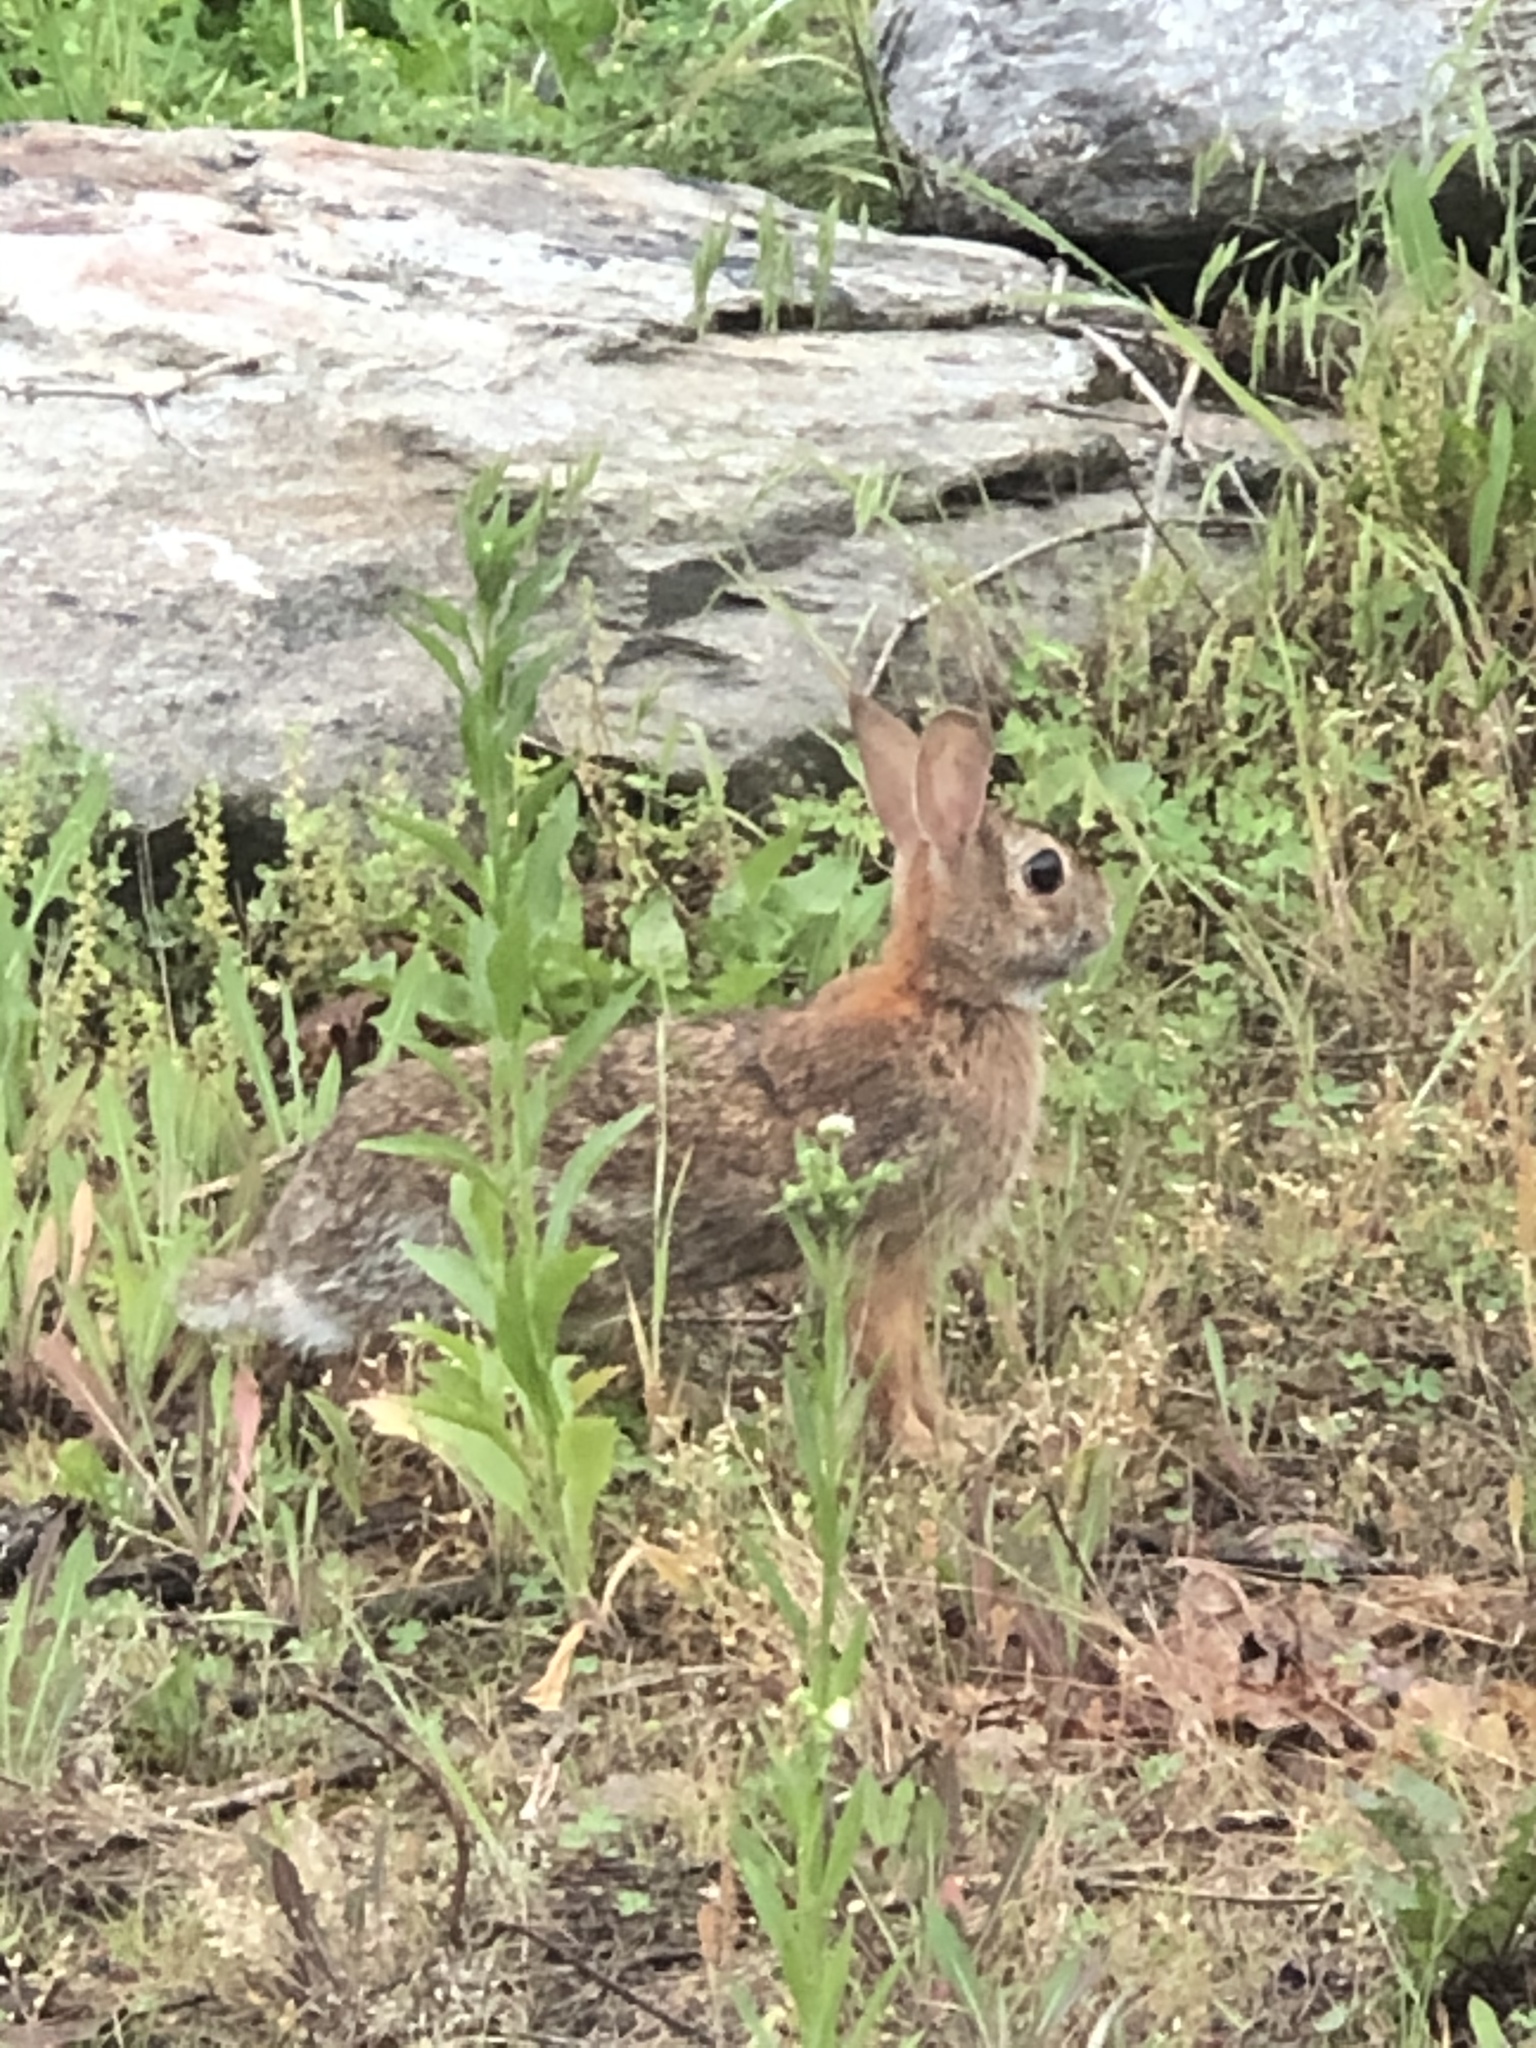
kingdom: Animalia
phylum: Chordata
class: Mammalia
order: Lagomorpha
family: Leporidae
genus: Sylvilagus
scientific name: Sylvilagus floridanus
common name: Eastern cottontail
